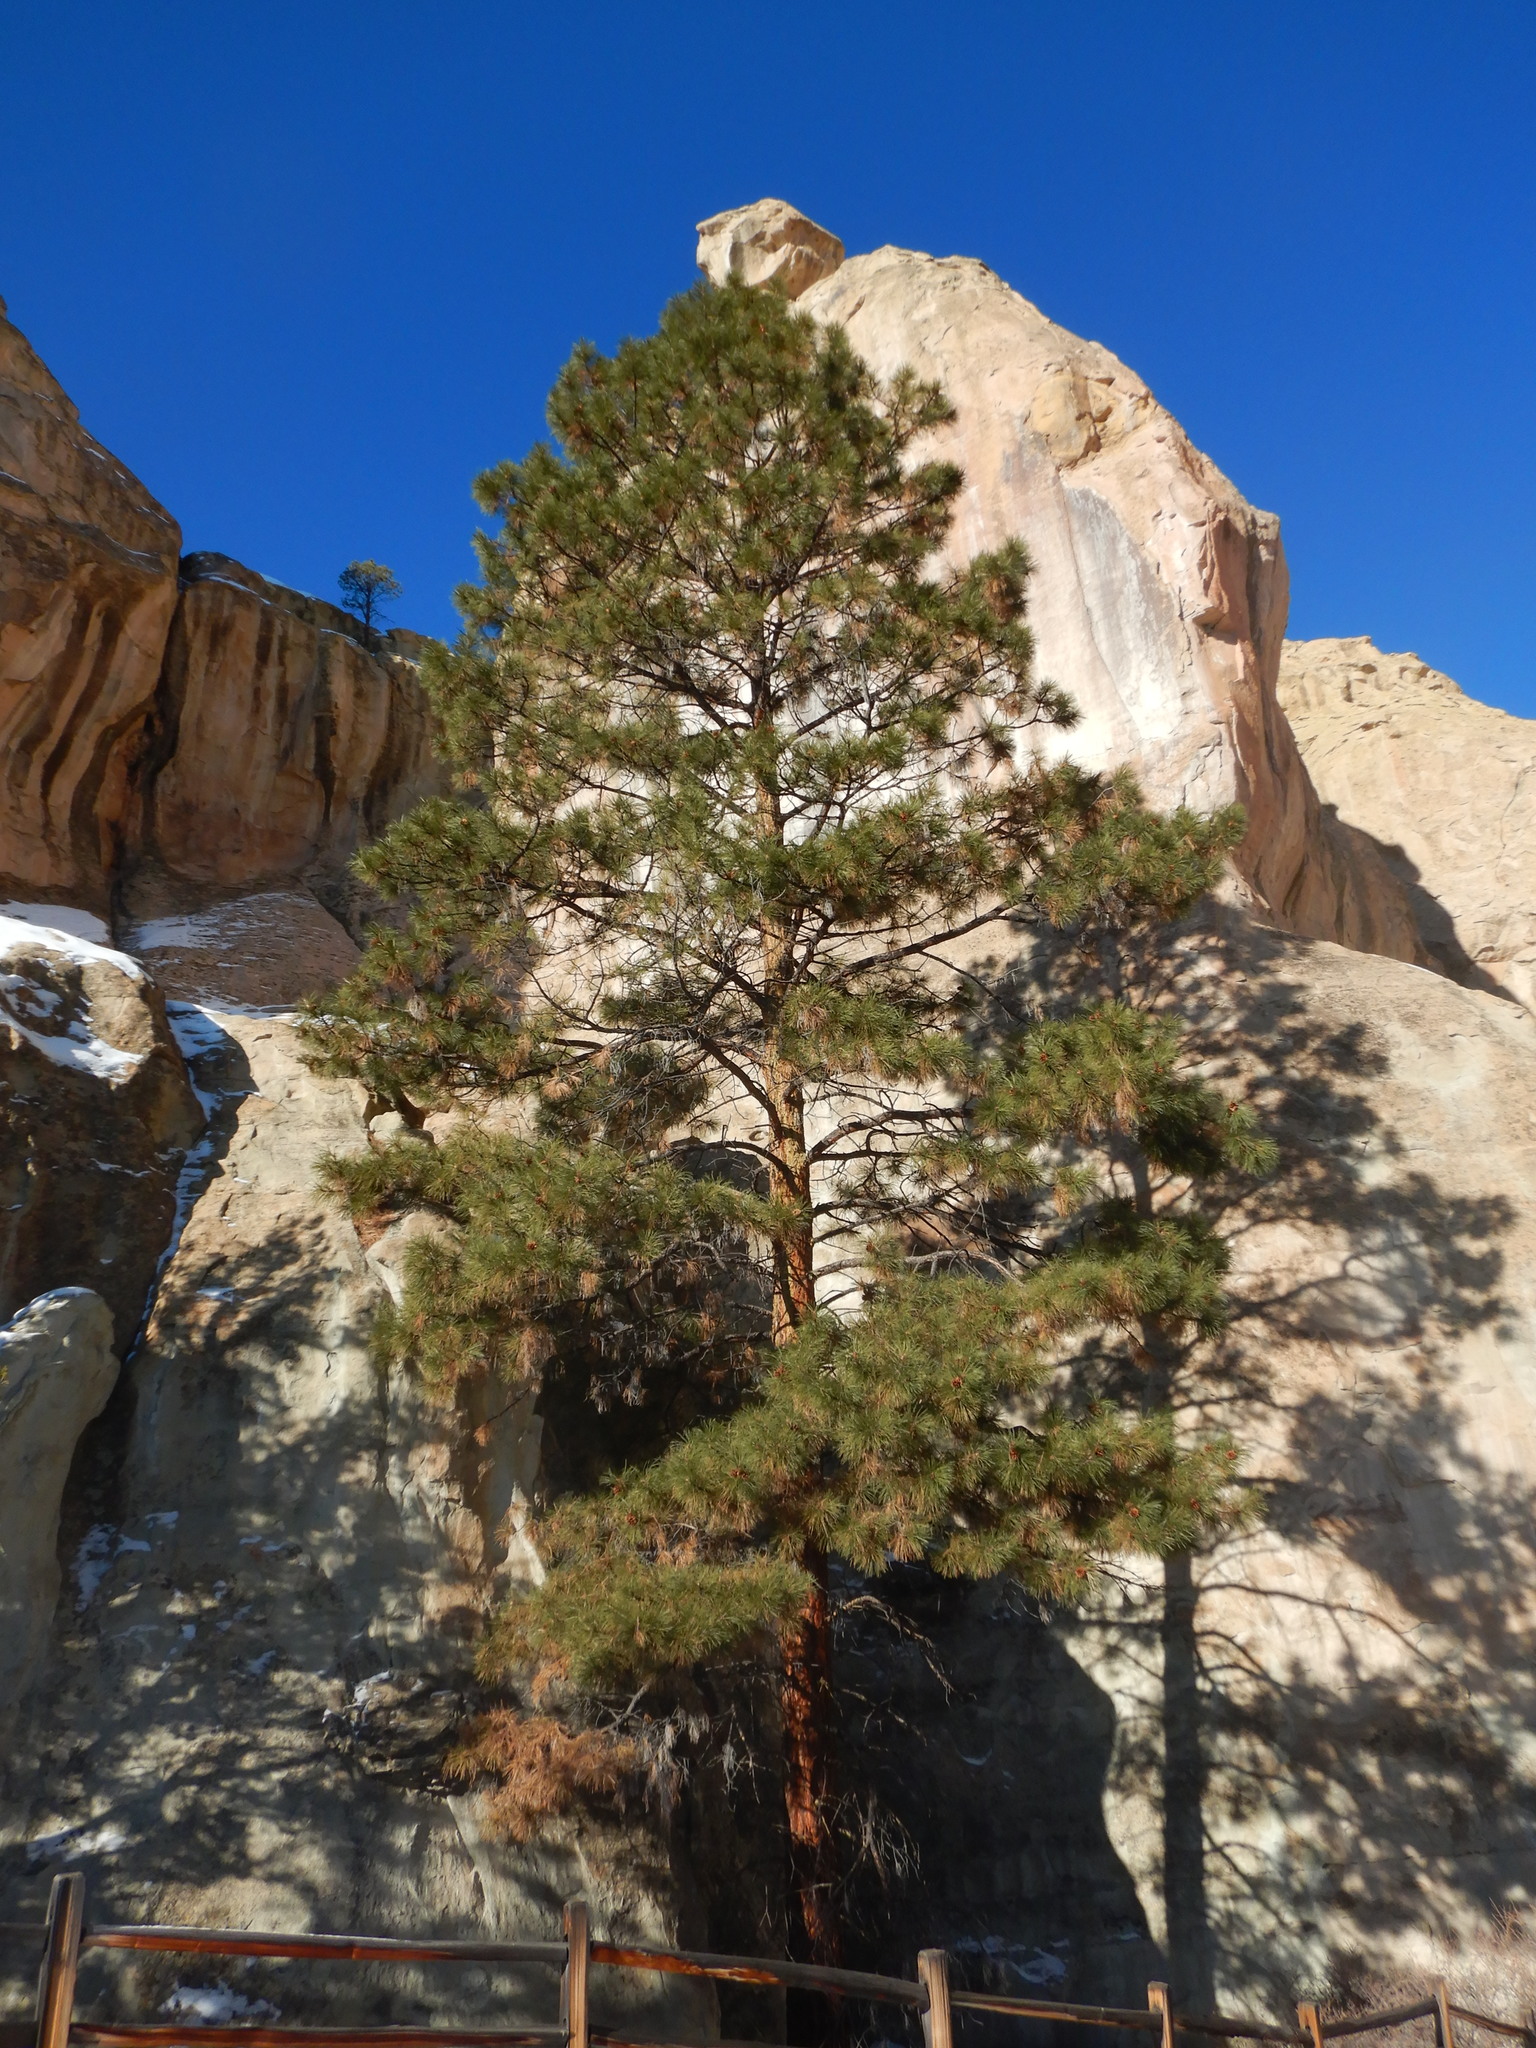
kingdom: Plantae
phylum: Tracheophyta
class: Pinopsida
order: Pinales
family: Pinaceae
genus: Pinus
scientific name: Pinus ponderosa
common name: Western yellow-pine
